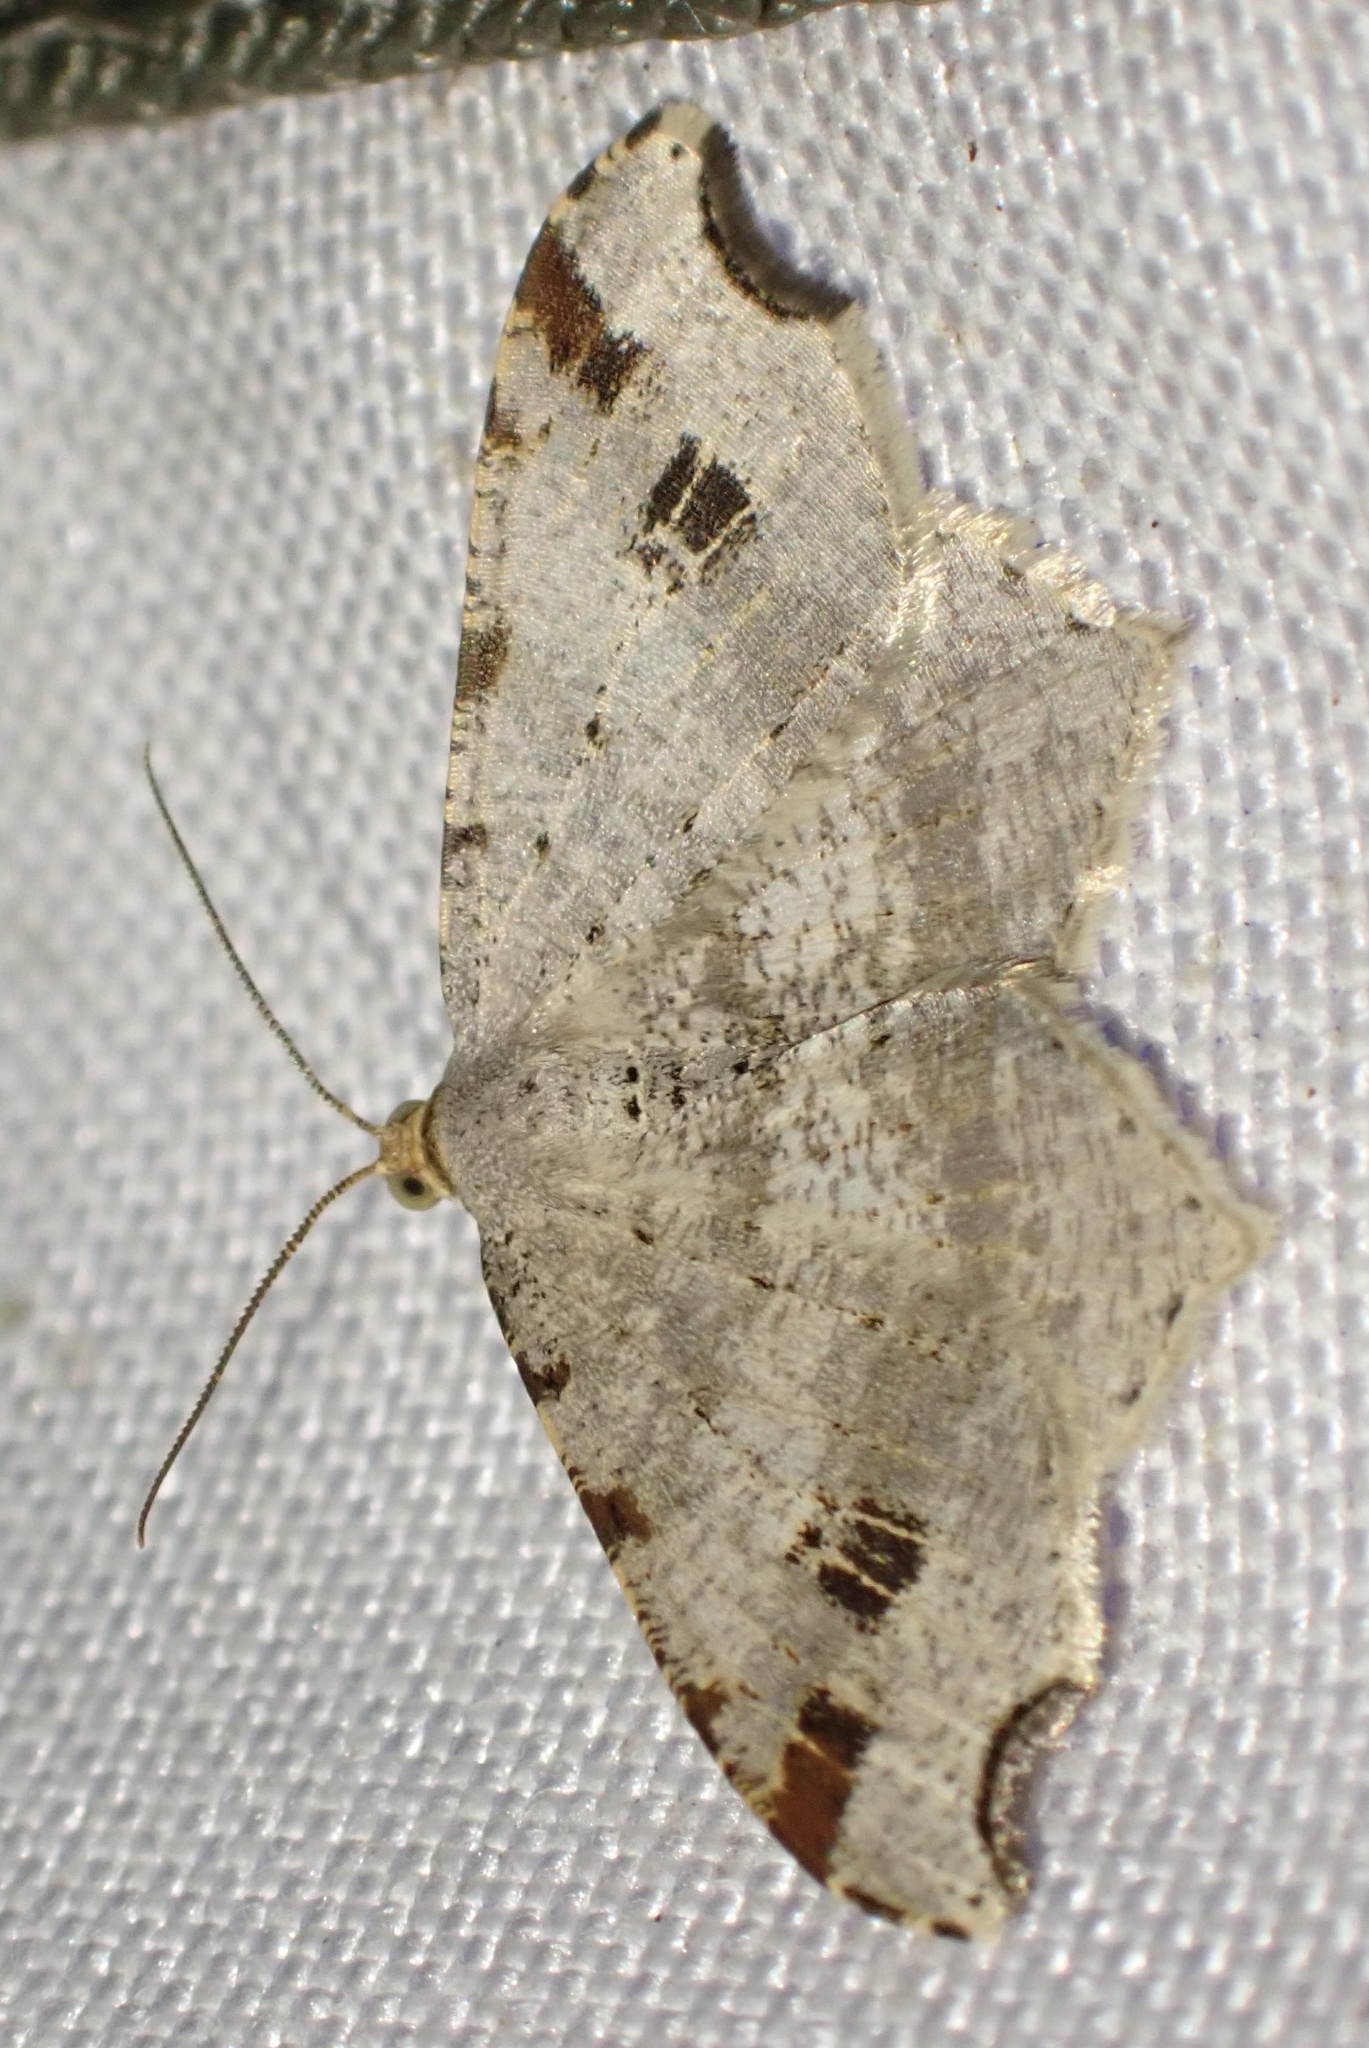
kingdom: Animalia
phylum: Arthropoda
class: Insecta
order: Lepidoptera
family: Geometridae
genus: Macaria
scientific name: Macaria alternata
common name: Sharp-angled peacock
